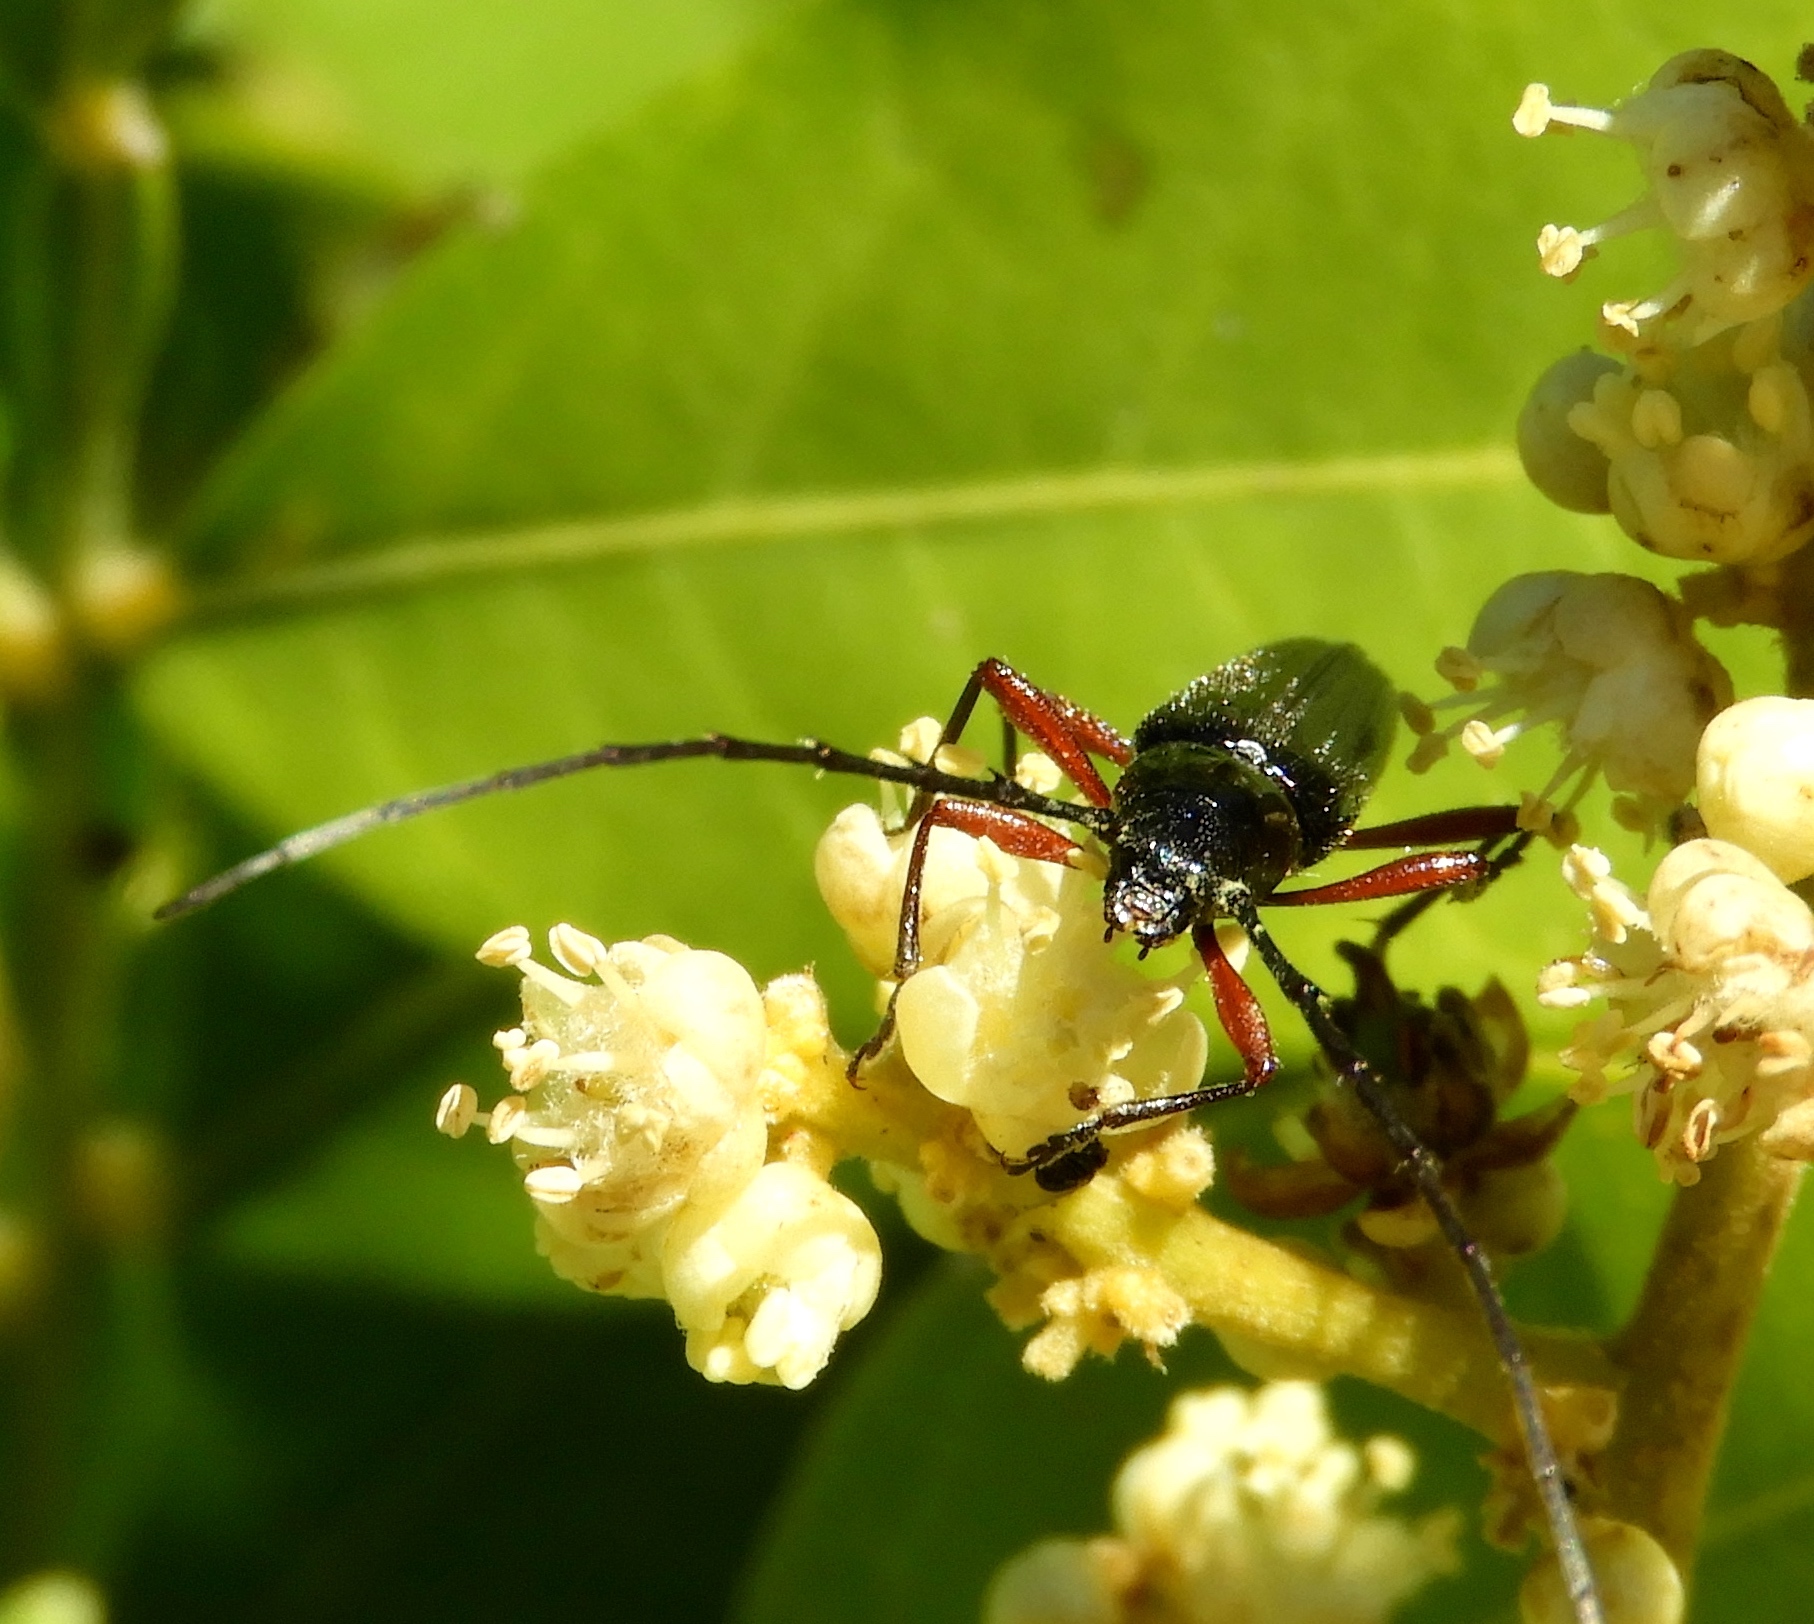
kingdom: Animalia
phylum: Arthropoda
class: Insecta
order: Coleoptera
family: Cerambycidae
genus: Stenosphenus
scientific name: Stenosphenus
